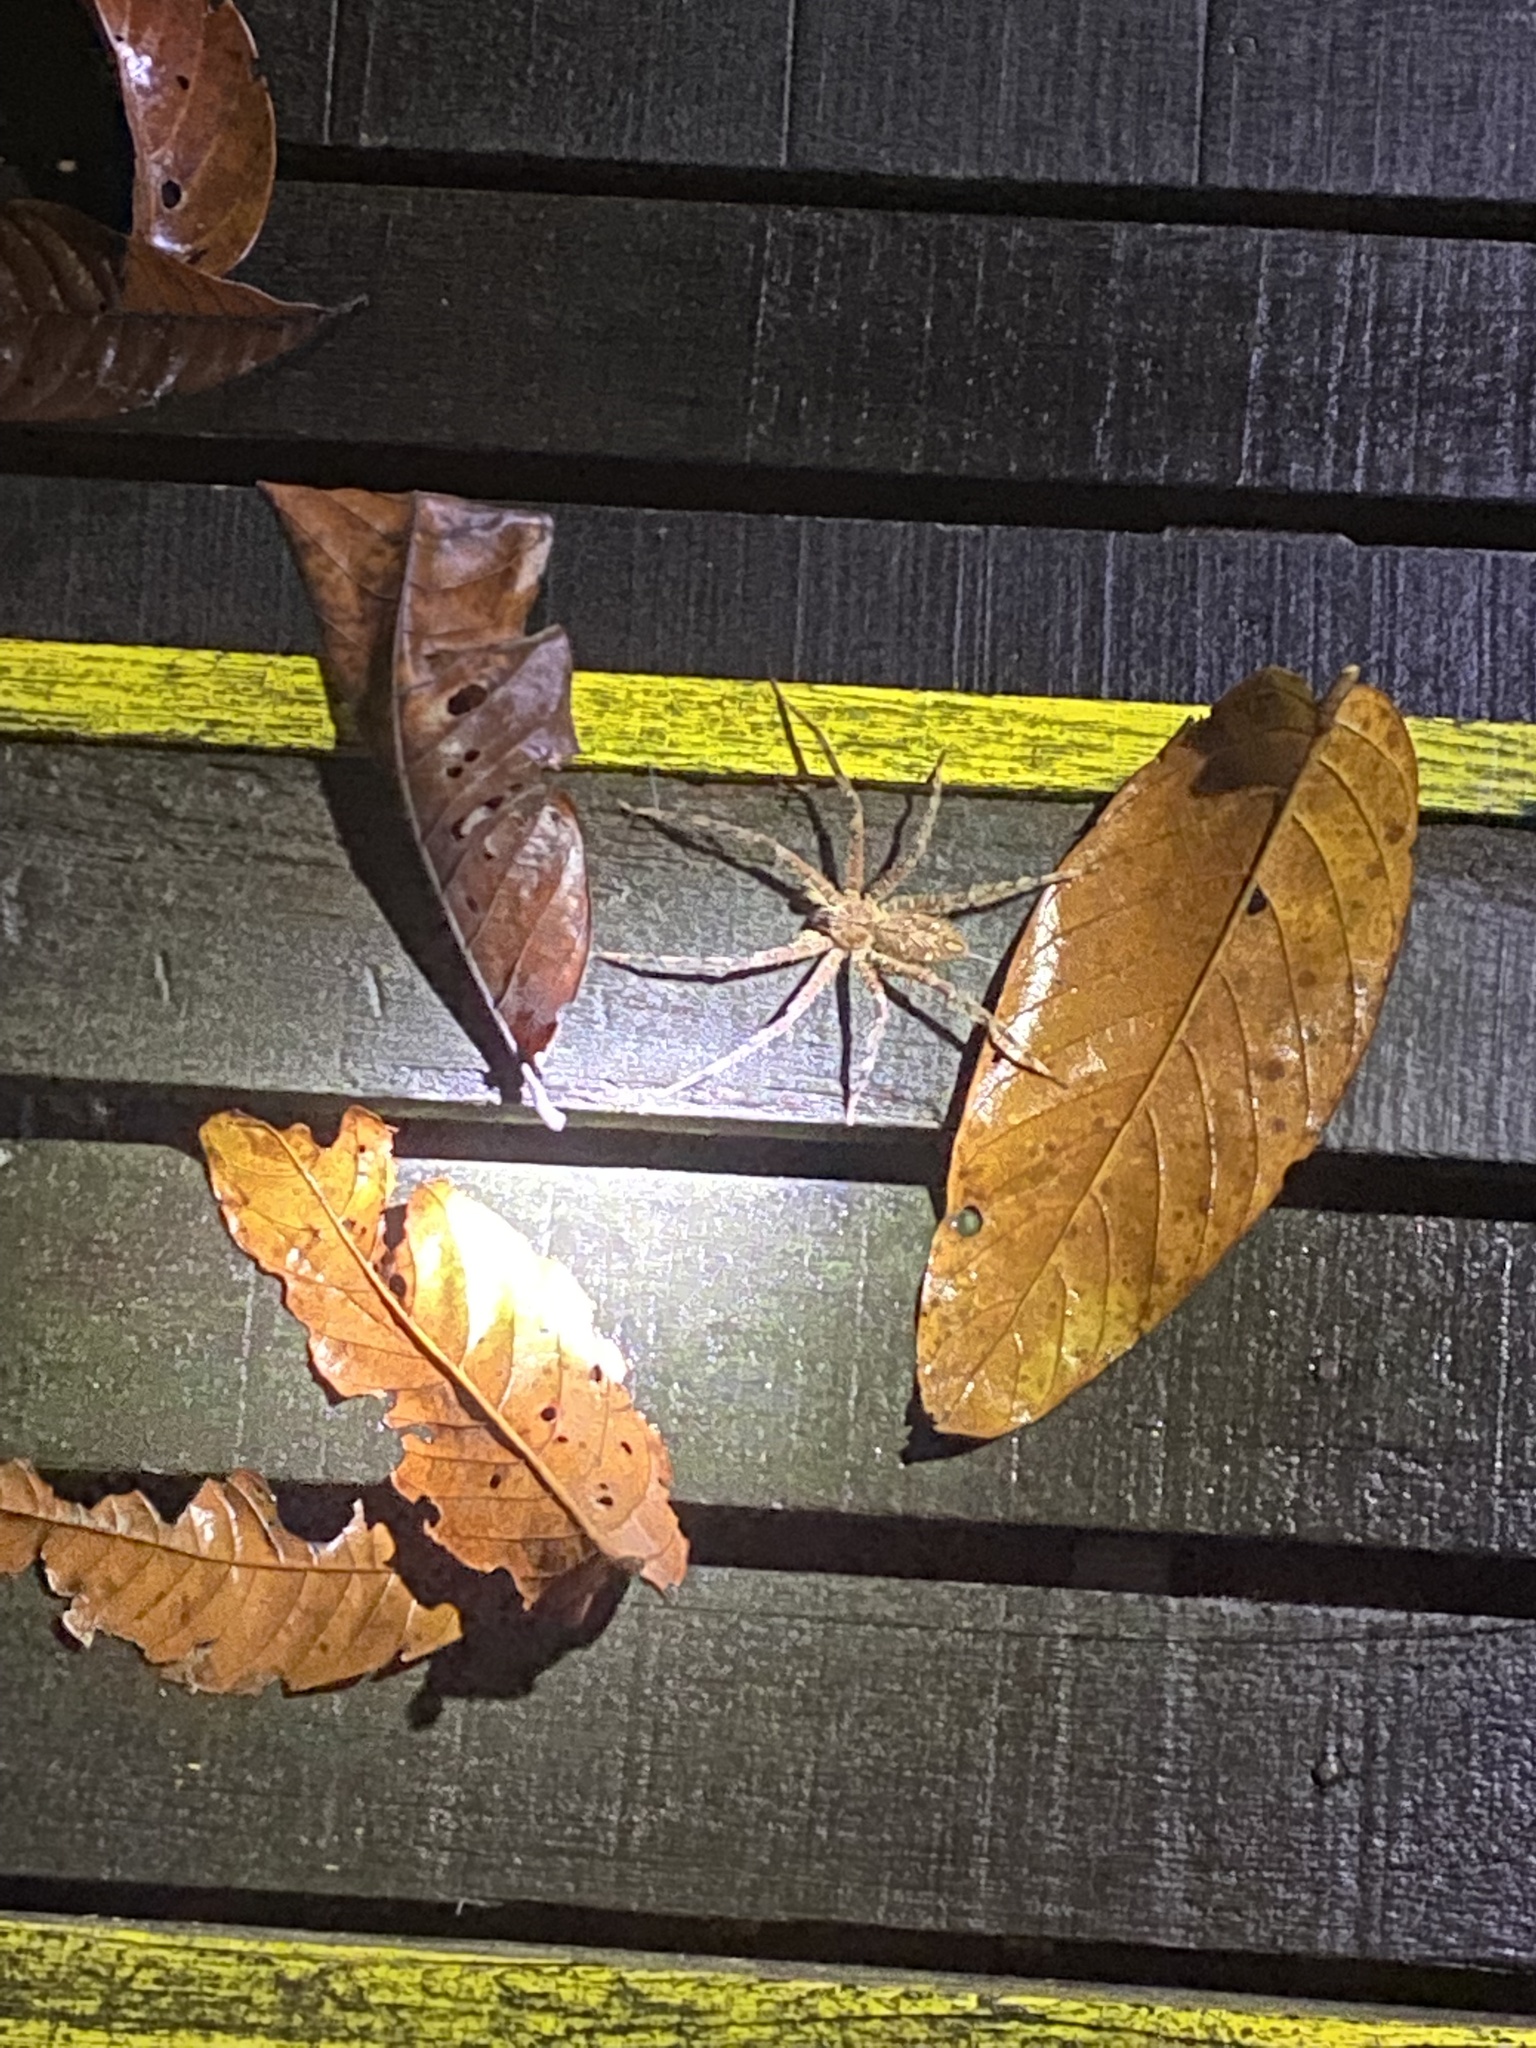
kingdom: Animalia
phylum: Arthropoda
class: Arachnida
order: Araneae
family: Sparassidae
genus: Heteropoda
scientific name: Heteropoda boiei
